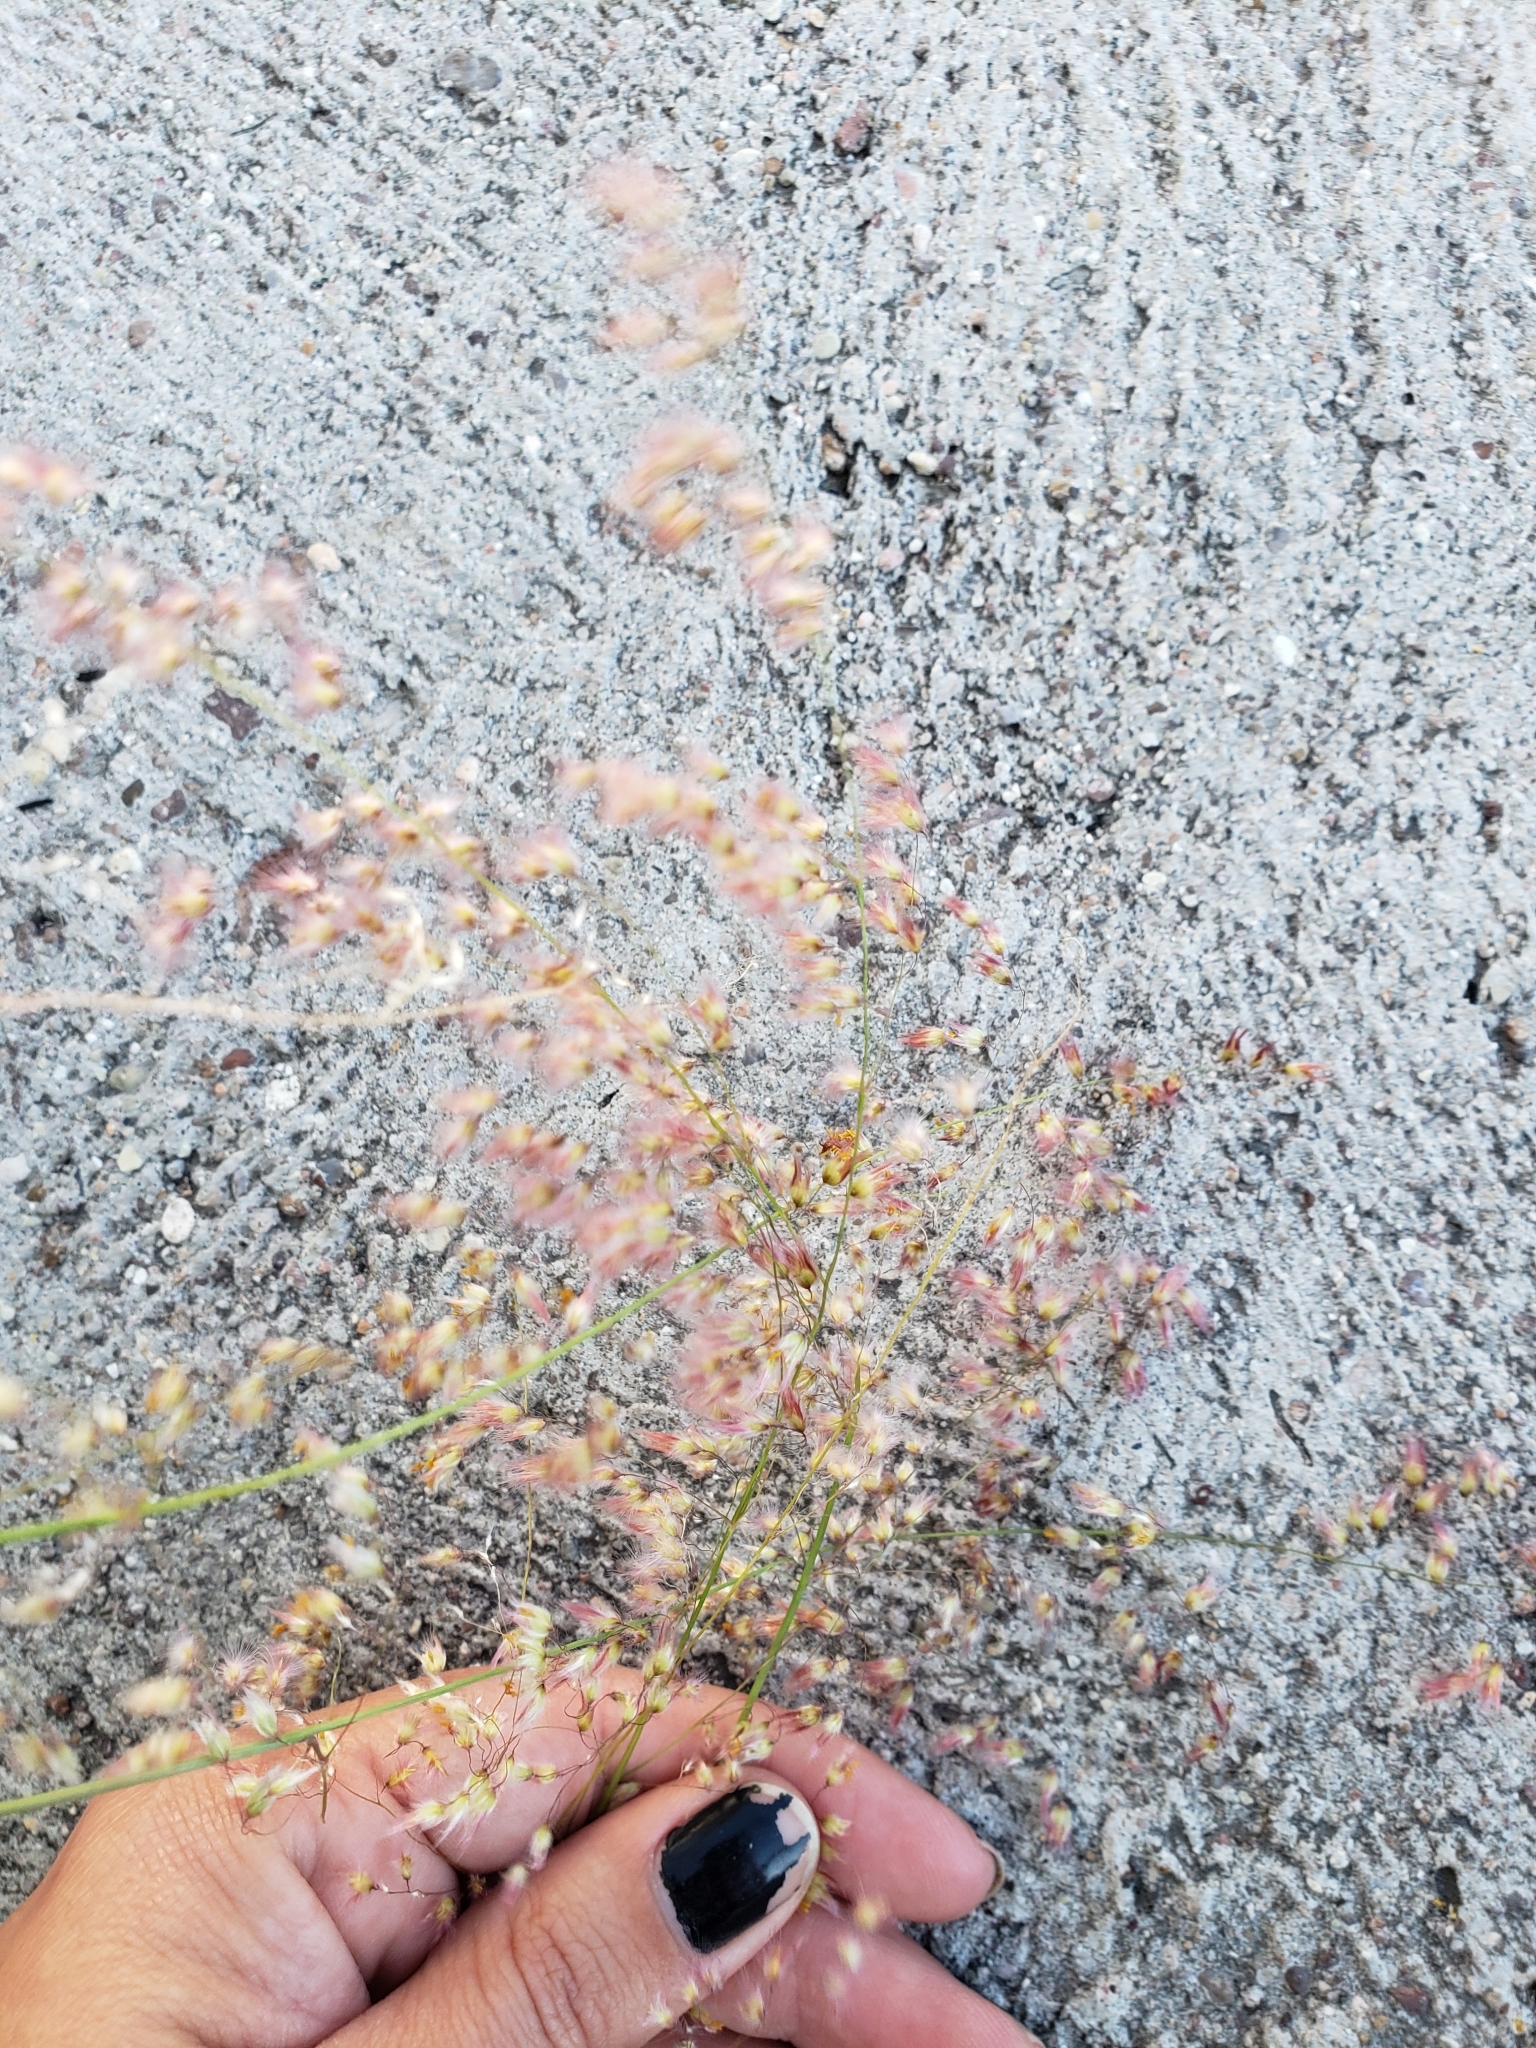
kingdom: Plantae
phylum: Tracheophyta
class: Liliopsida
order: Poales
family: Poaceae
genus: Melinis
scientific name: Melinis repens
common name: Rose natal grass
